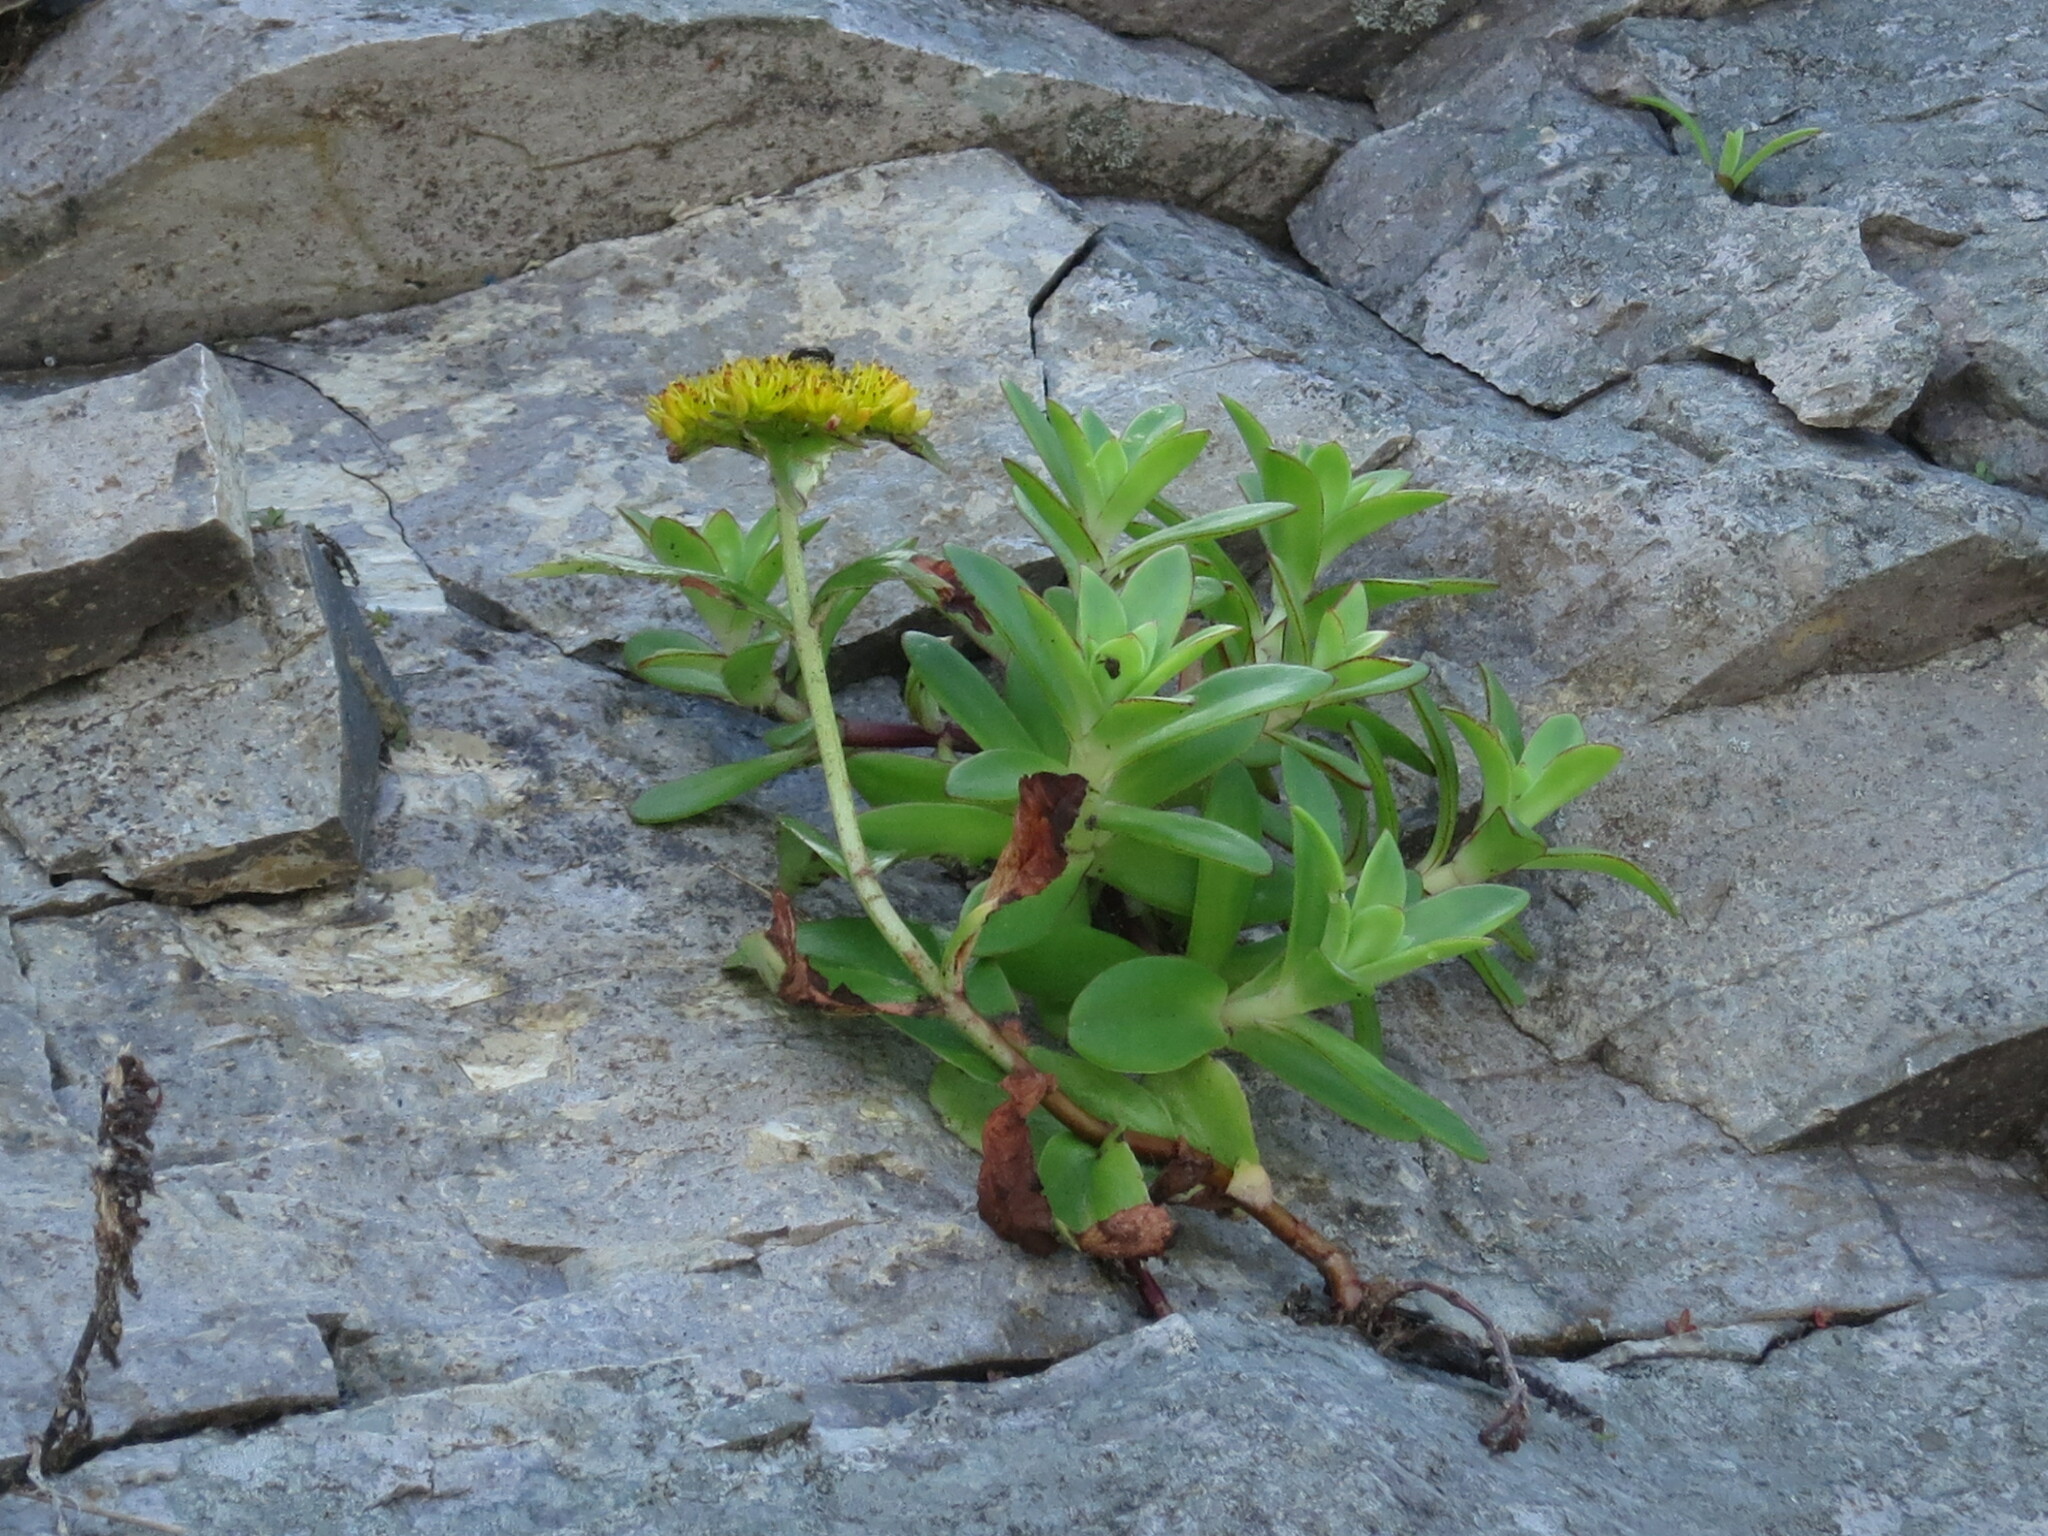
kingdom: Plantae
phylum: Tracheophyta
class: Magnoliopsida
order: Saxifragales
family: Crassulaceae
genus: Phedimus
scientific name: Phedimus aizoon
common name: Orpin aizoon
